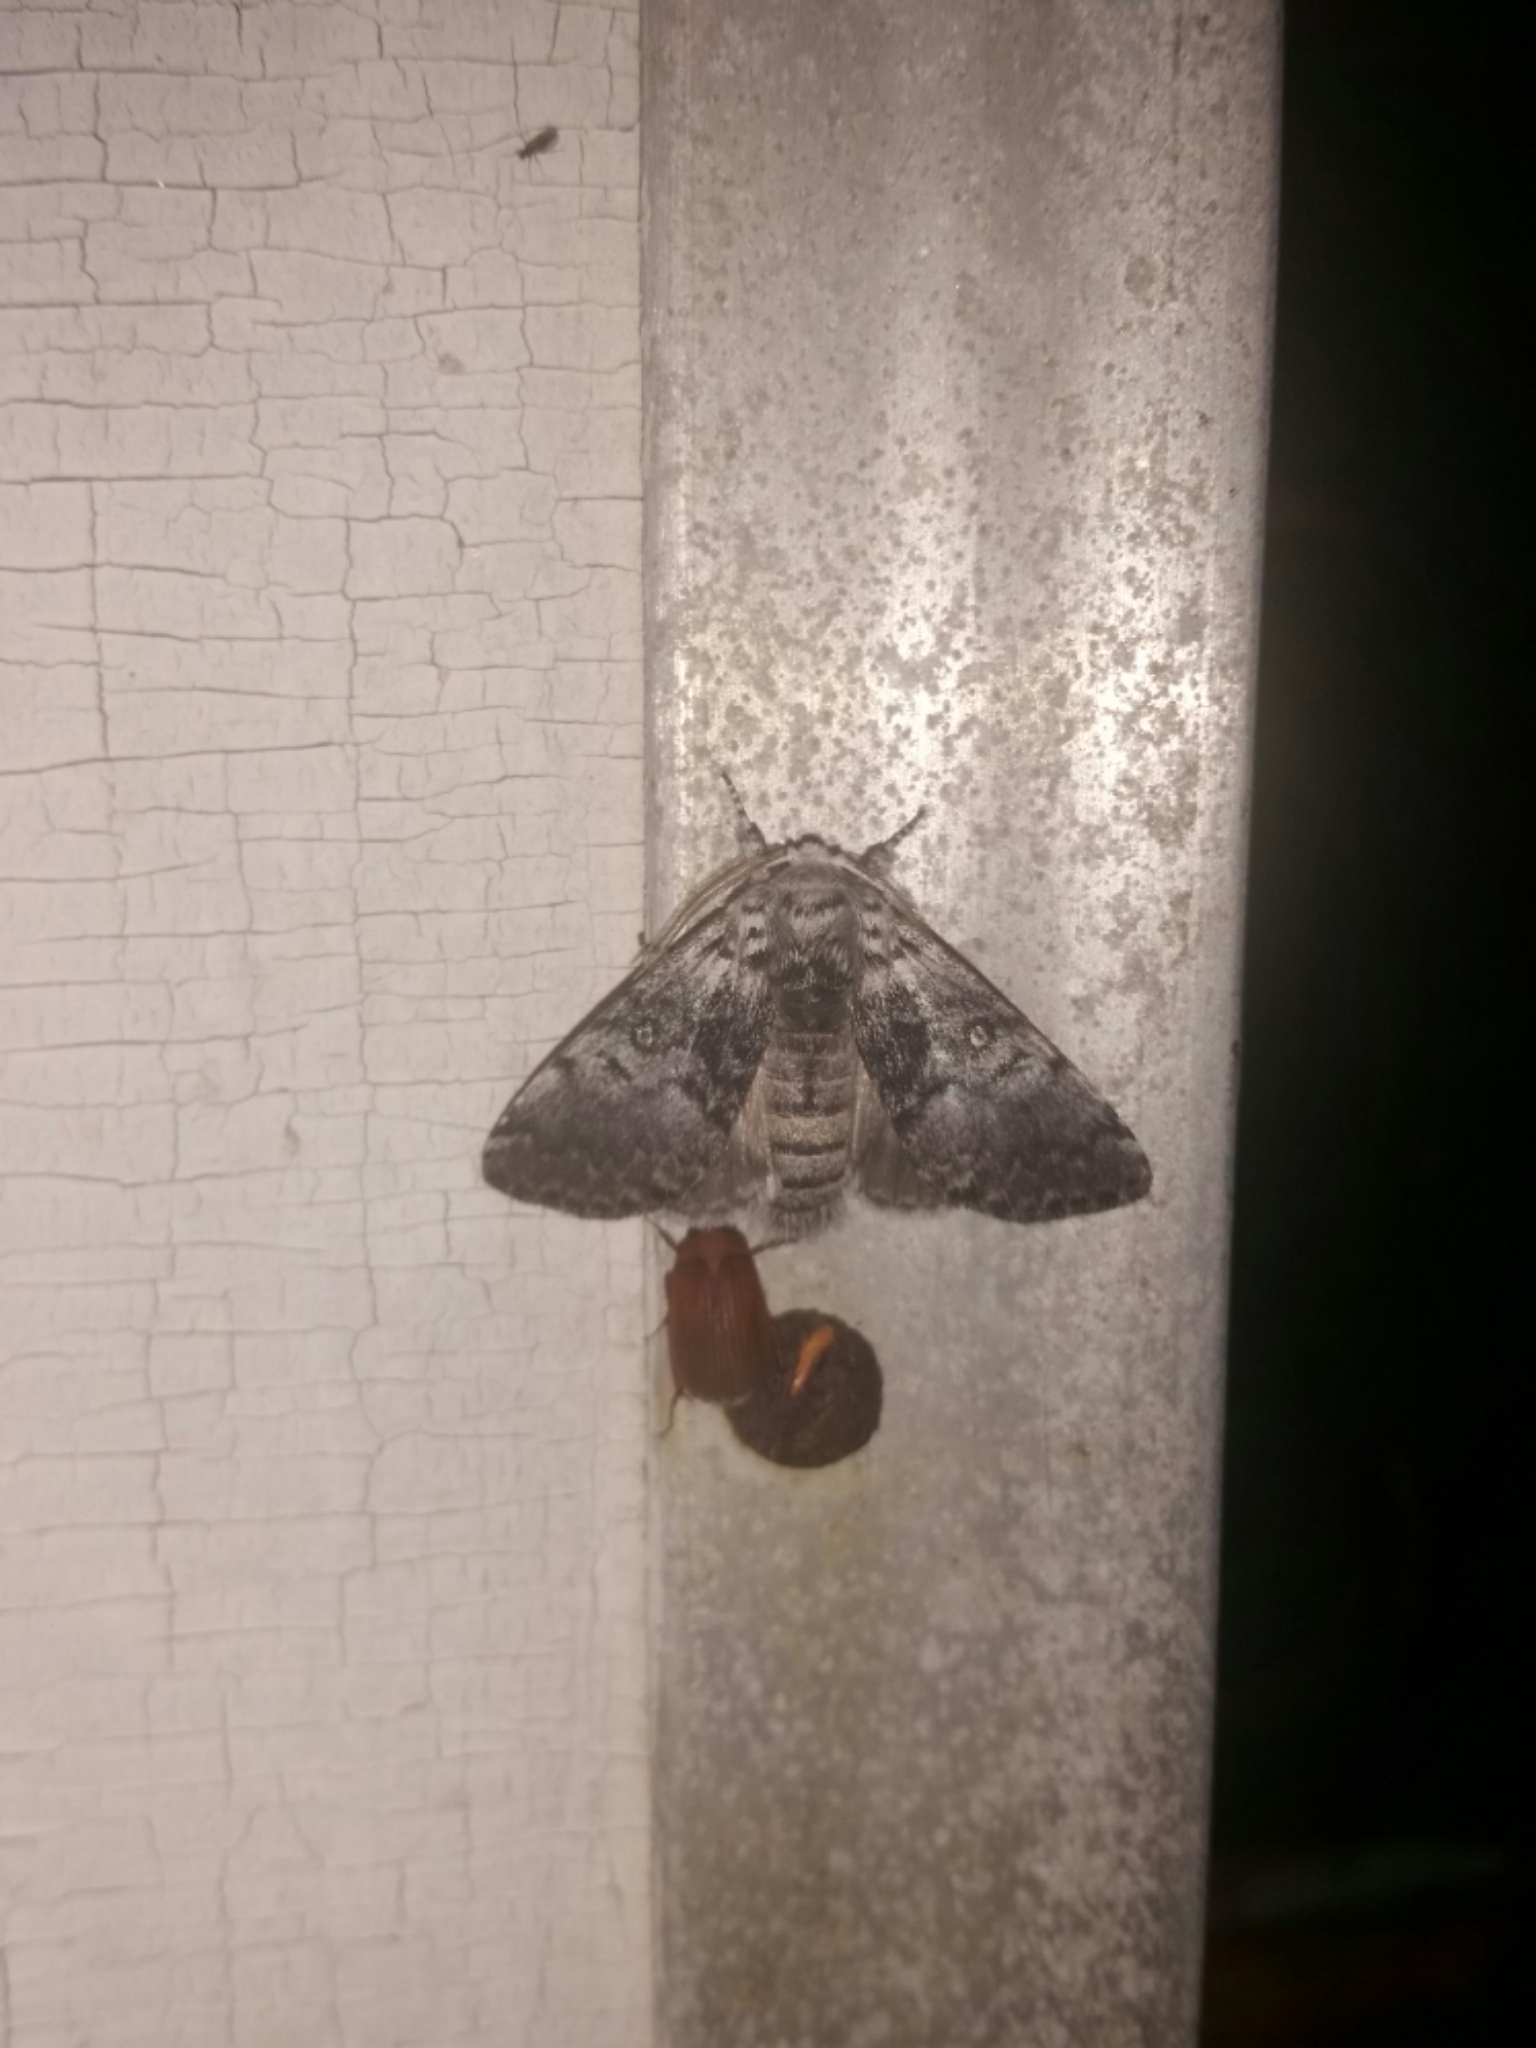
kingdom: Animalia
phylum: Arthropoda
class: Insecta
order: Lepidoptera
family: Noctuidae
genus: Colocasia
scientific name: Colocasia flavicornis
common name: Saddled yellowhorn
